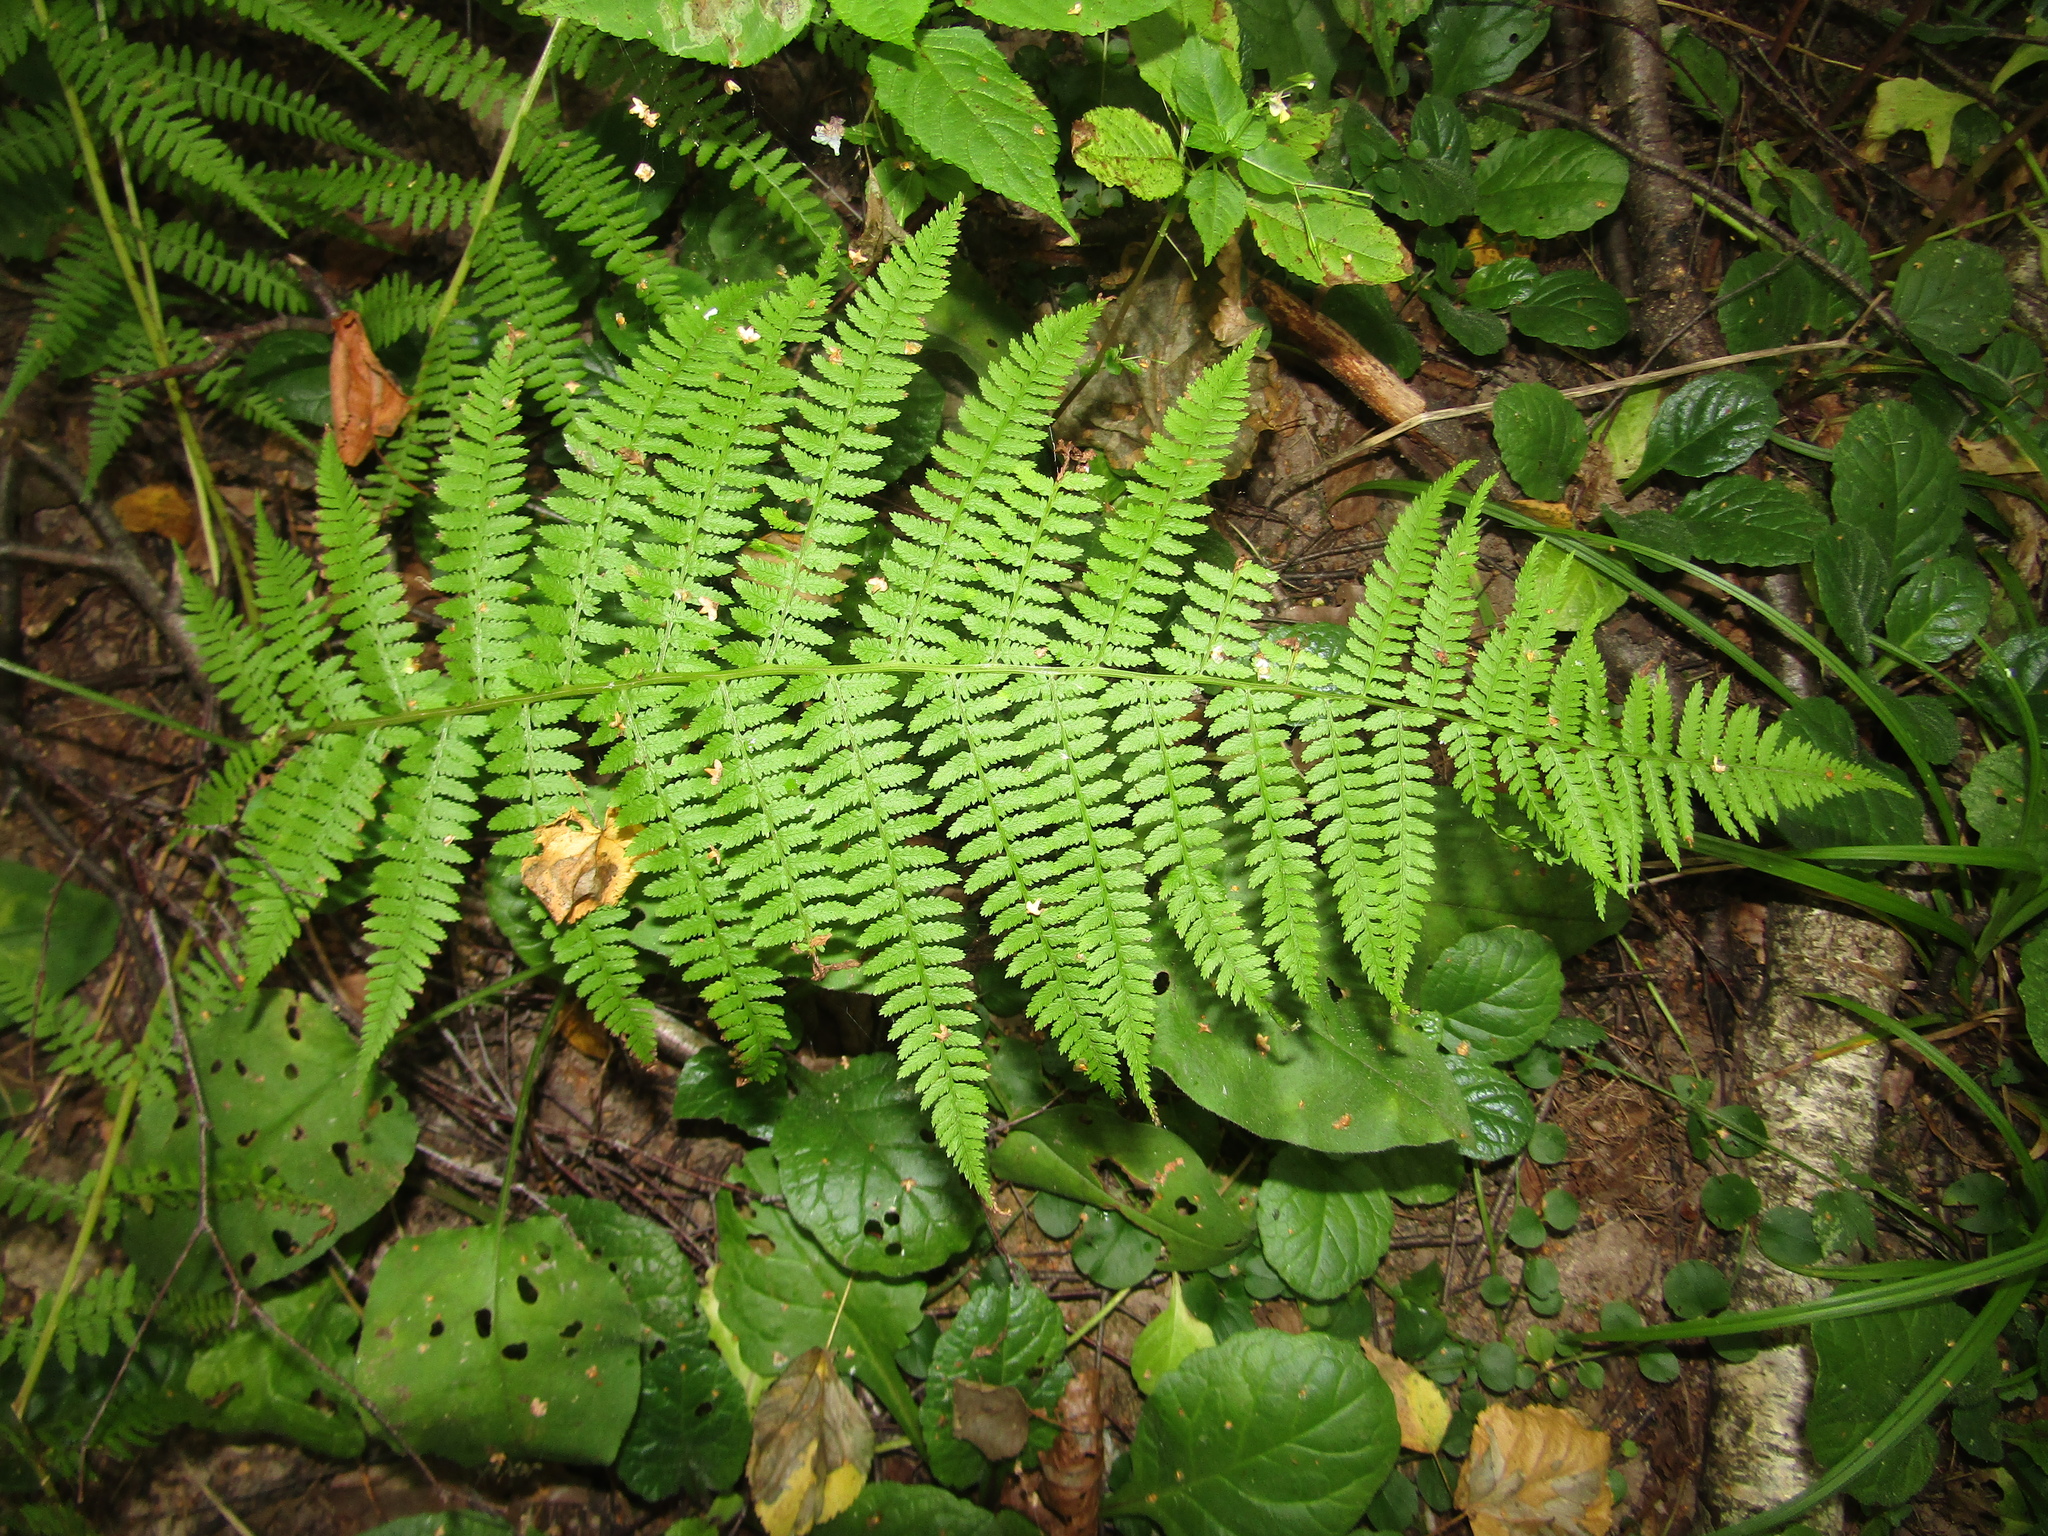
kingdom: Plantae
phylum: Tracheophyta
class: Polypodiopsida
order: Polypodiales
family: Athyriaceae
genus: Athyrium
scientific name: Athyrium filix-femina
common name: Lady fern
